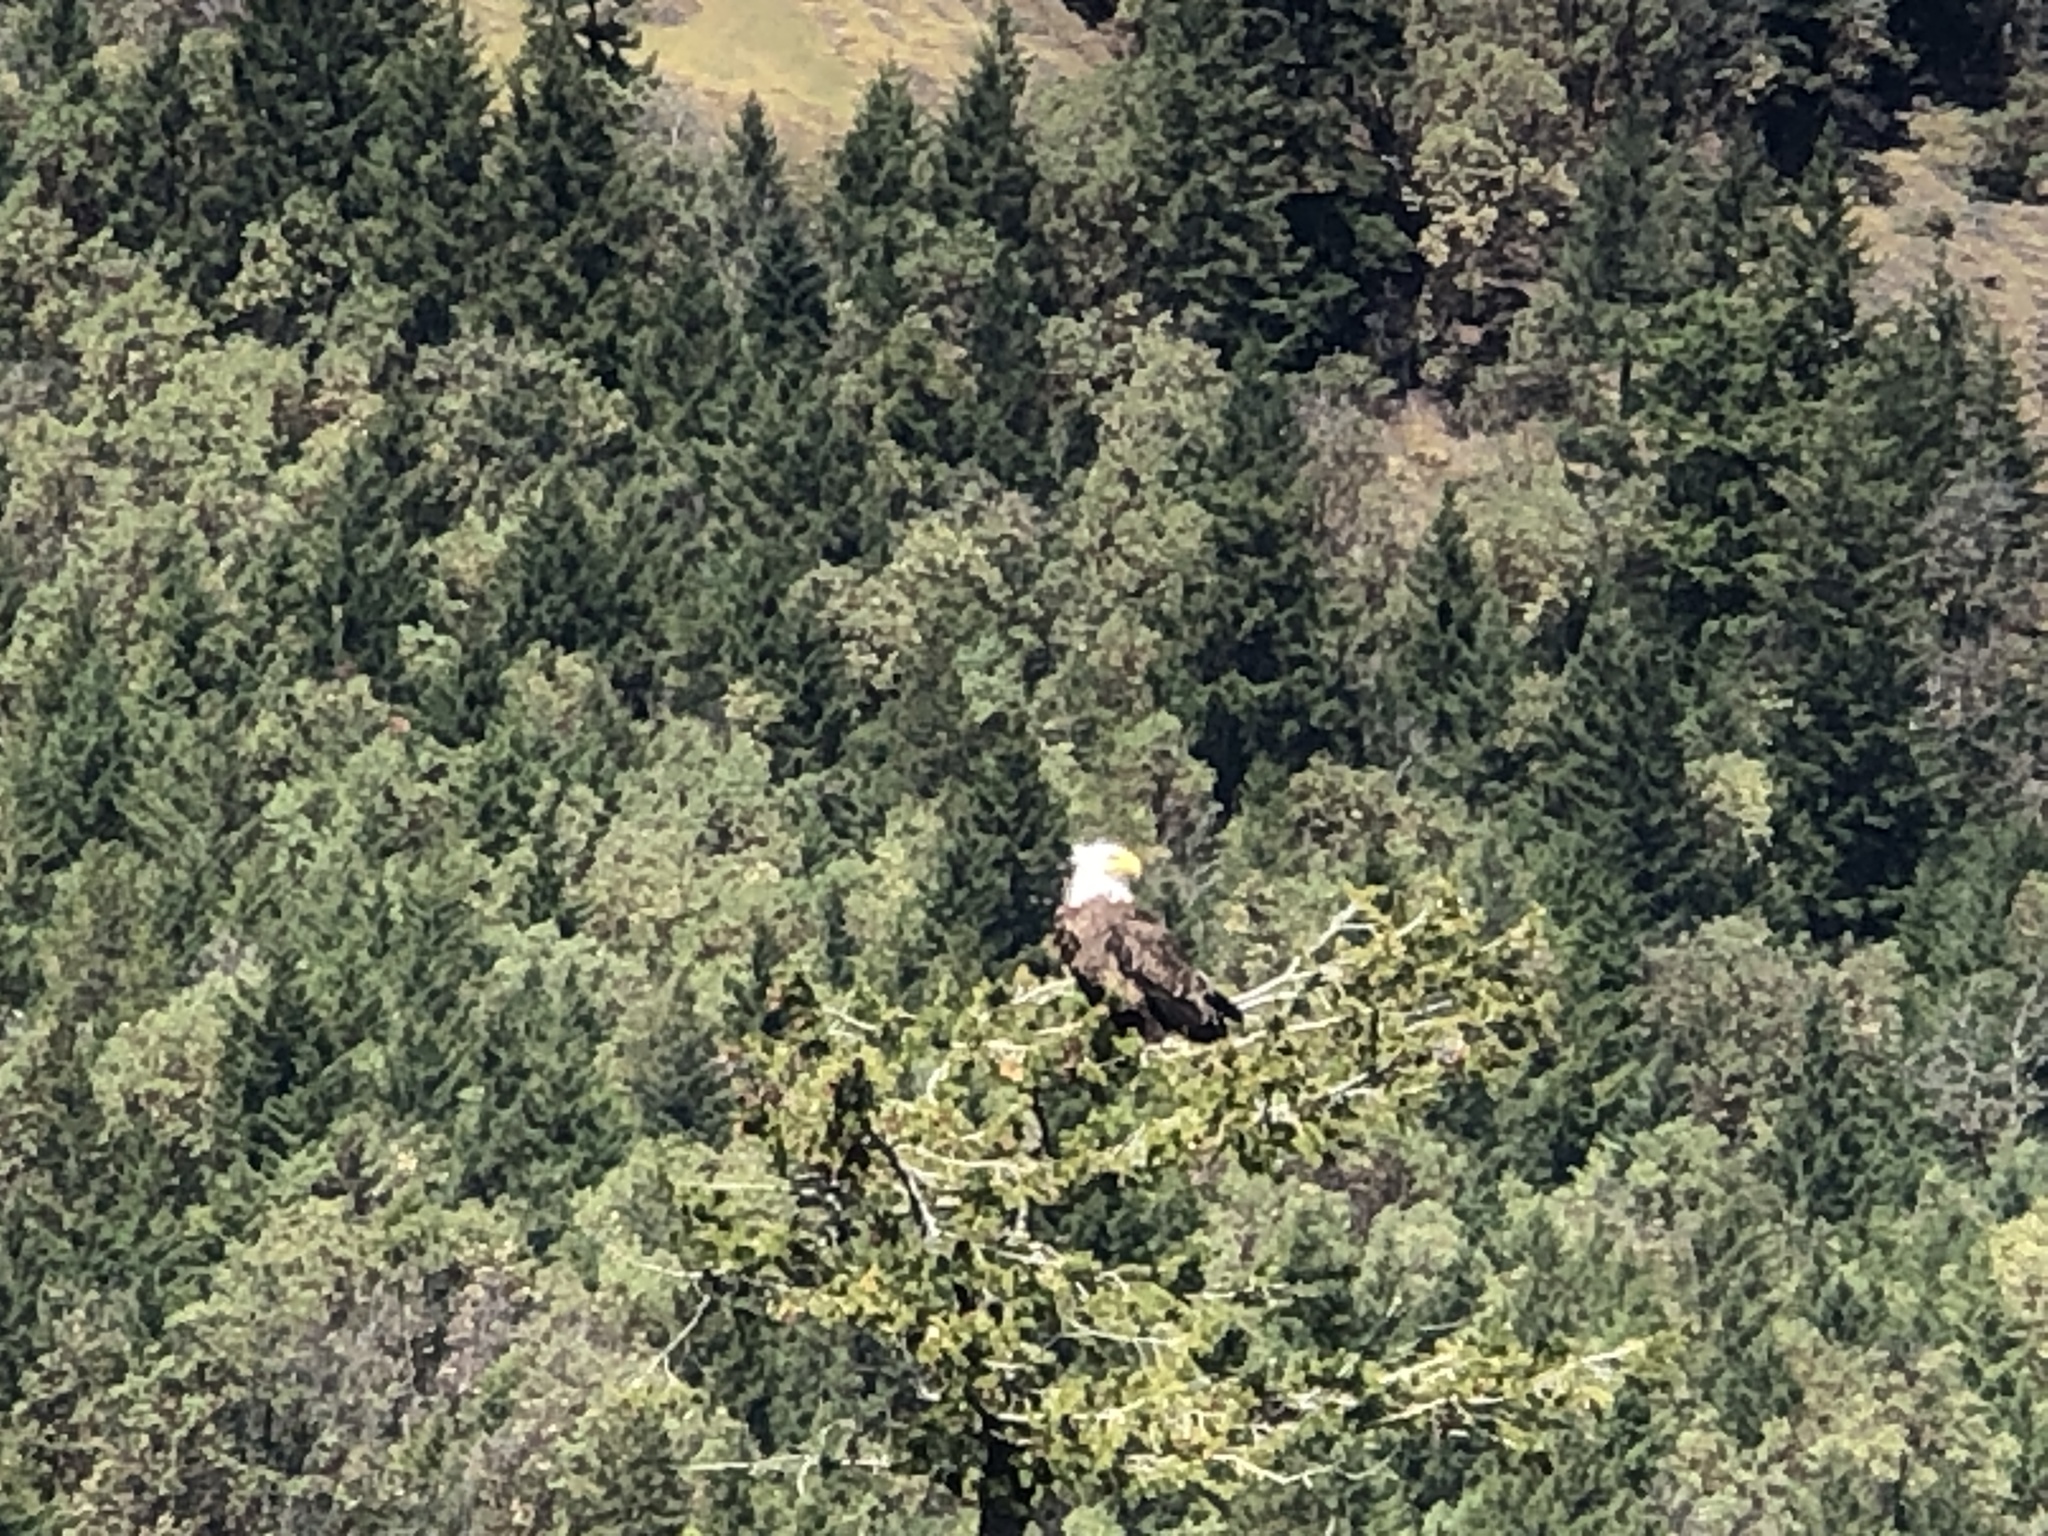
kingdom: Animalia
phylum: Chordata
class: Aves
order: Accipitriformes
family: Accipitridae
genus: Haliaeetus
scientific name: Haliaeetus leucocephalus
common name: Bald eagle
